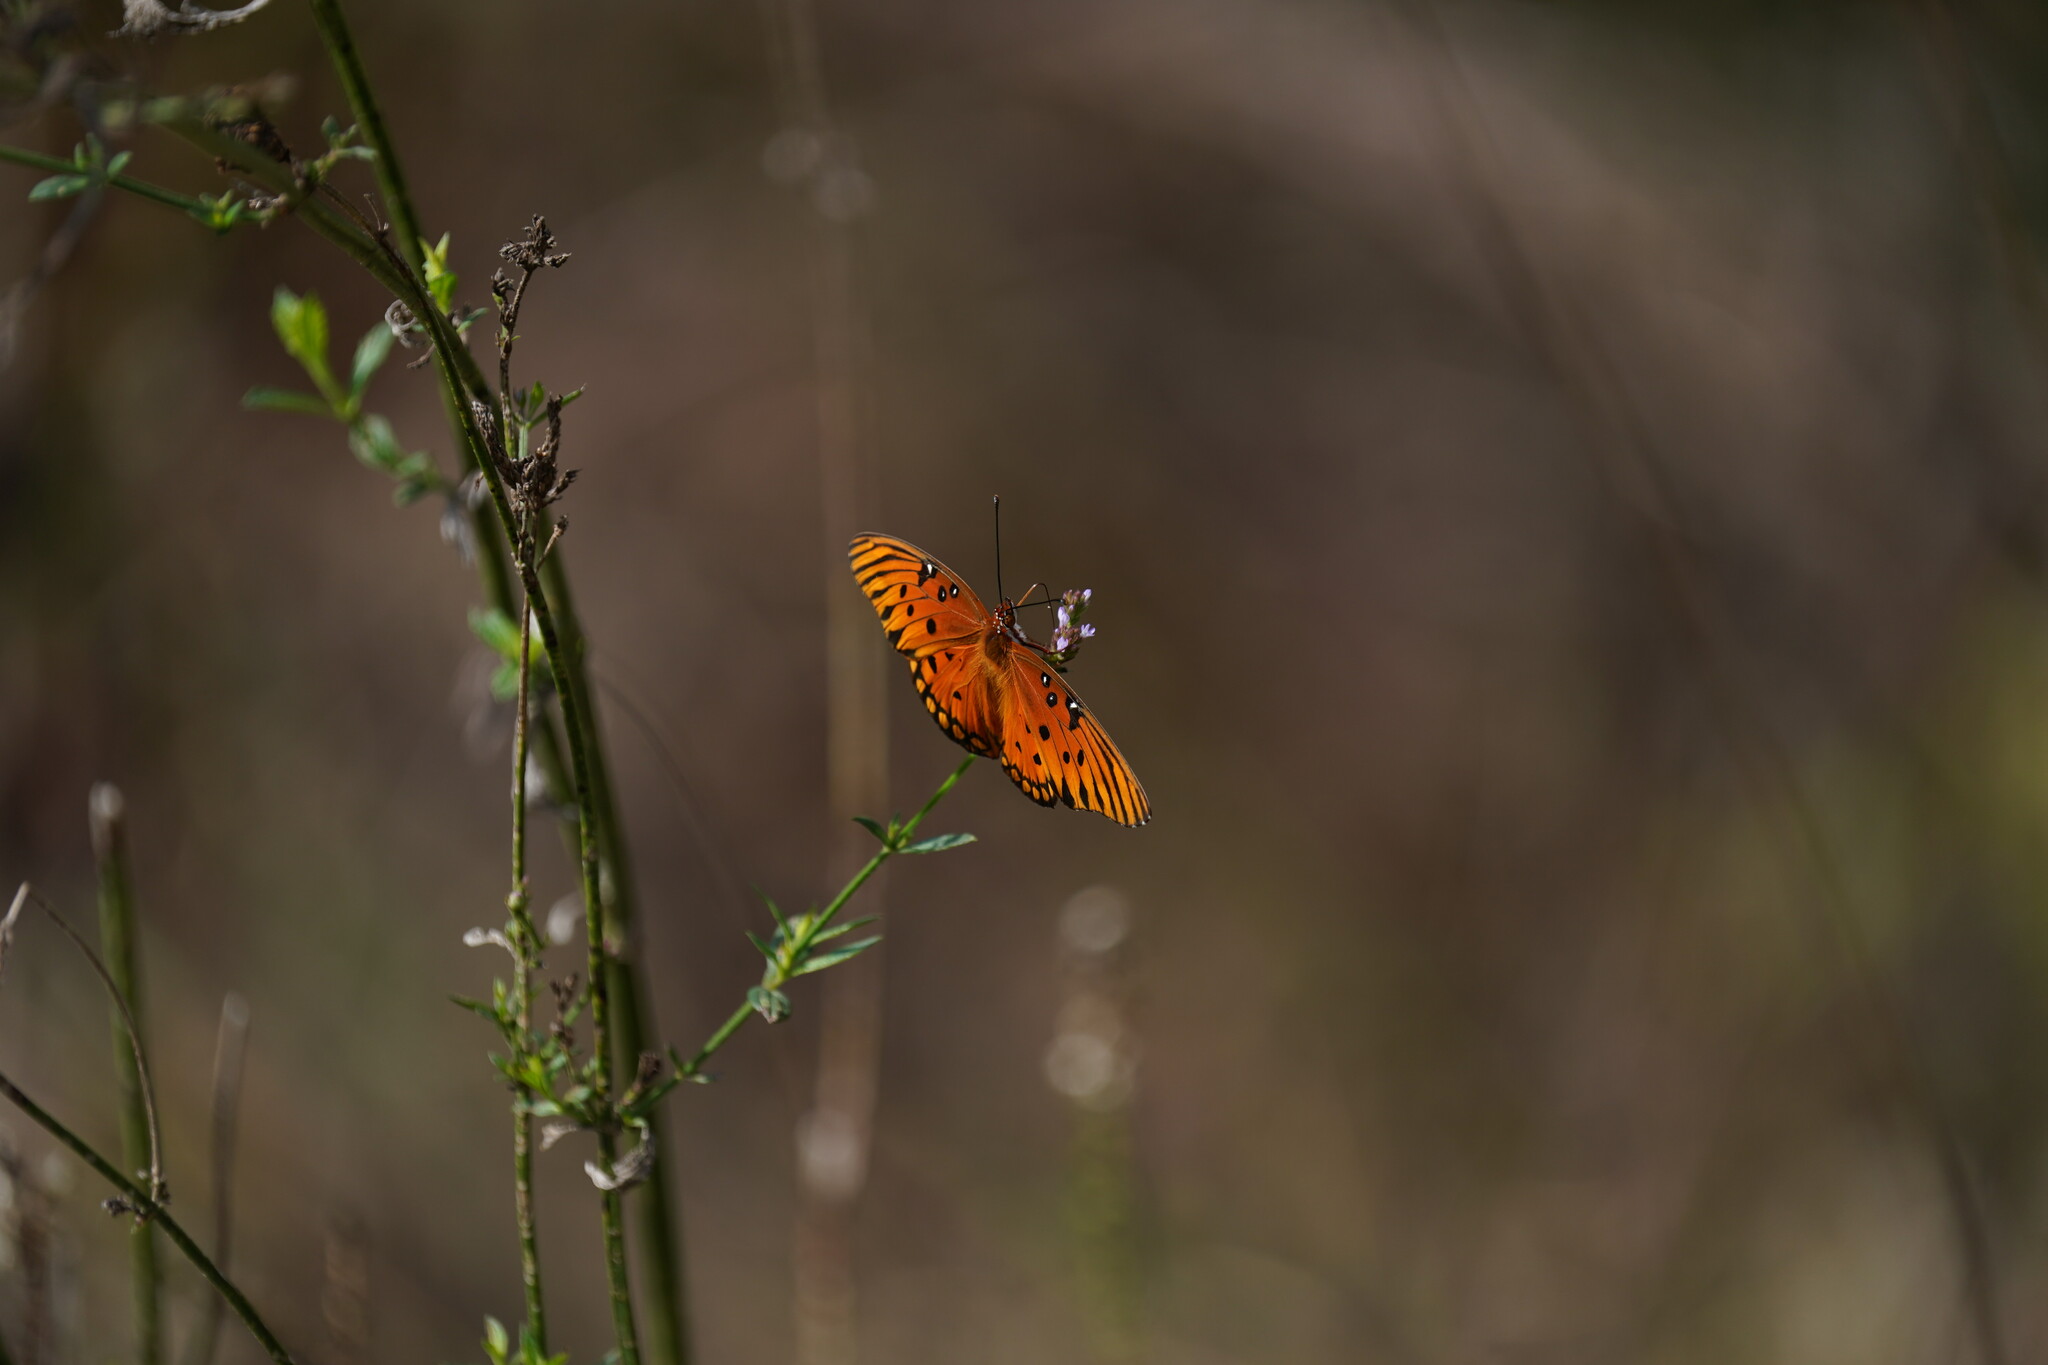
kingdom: Animalia
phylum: Arthropoda
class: Insecta
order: Lepidoptera
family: Nymphalidae
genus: Dione
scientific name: Dione vanillae
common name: Gulf fritillary
